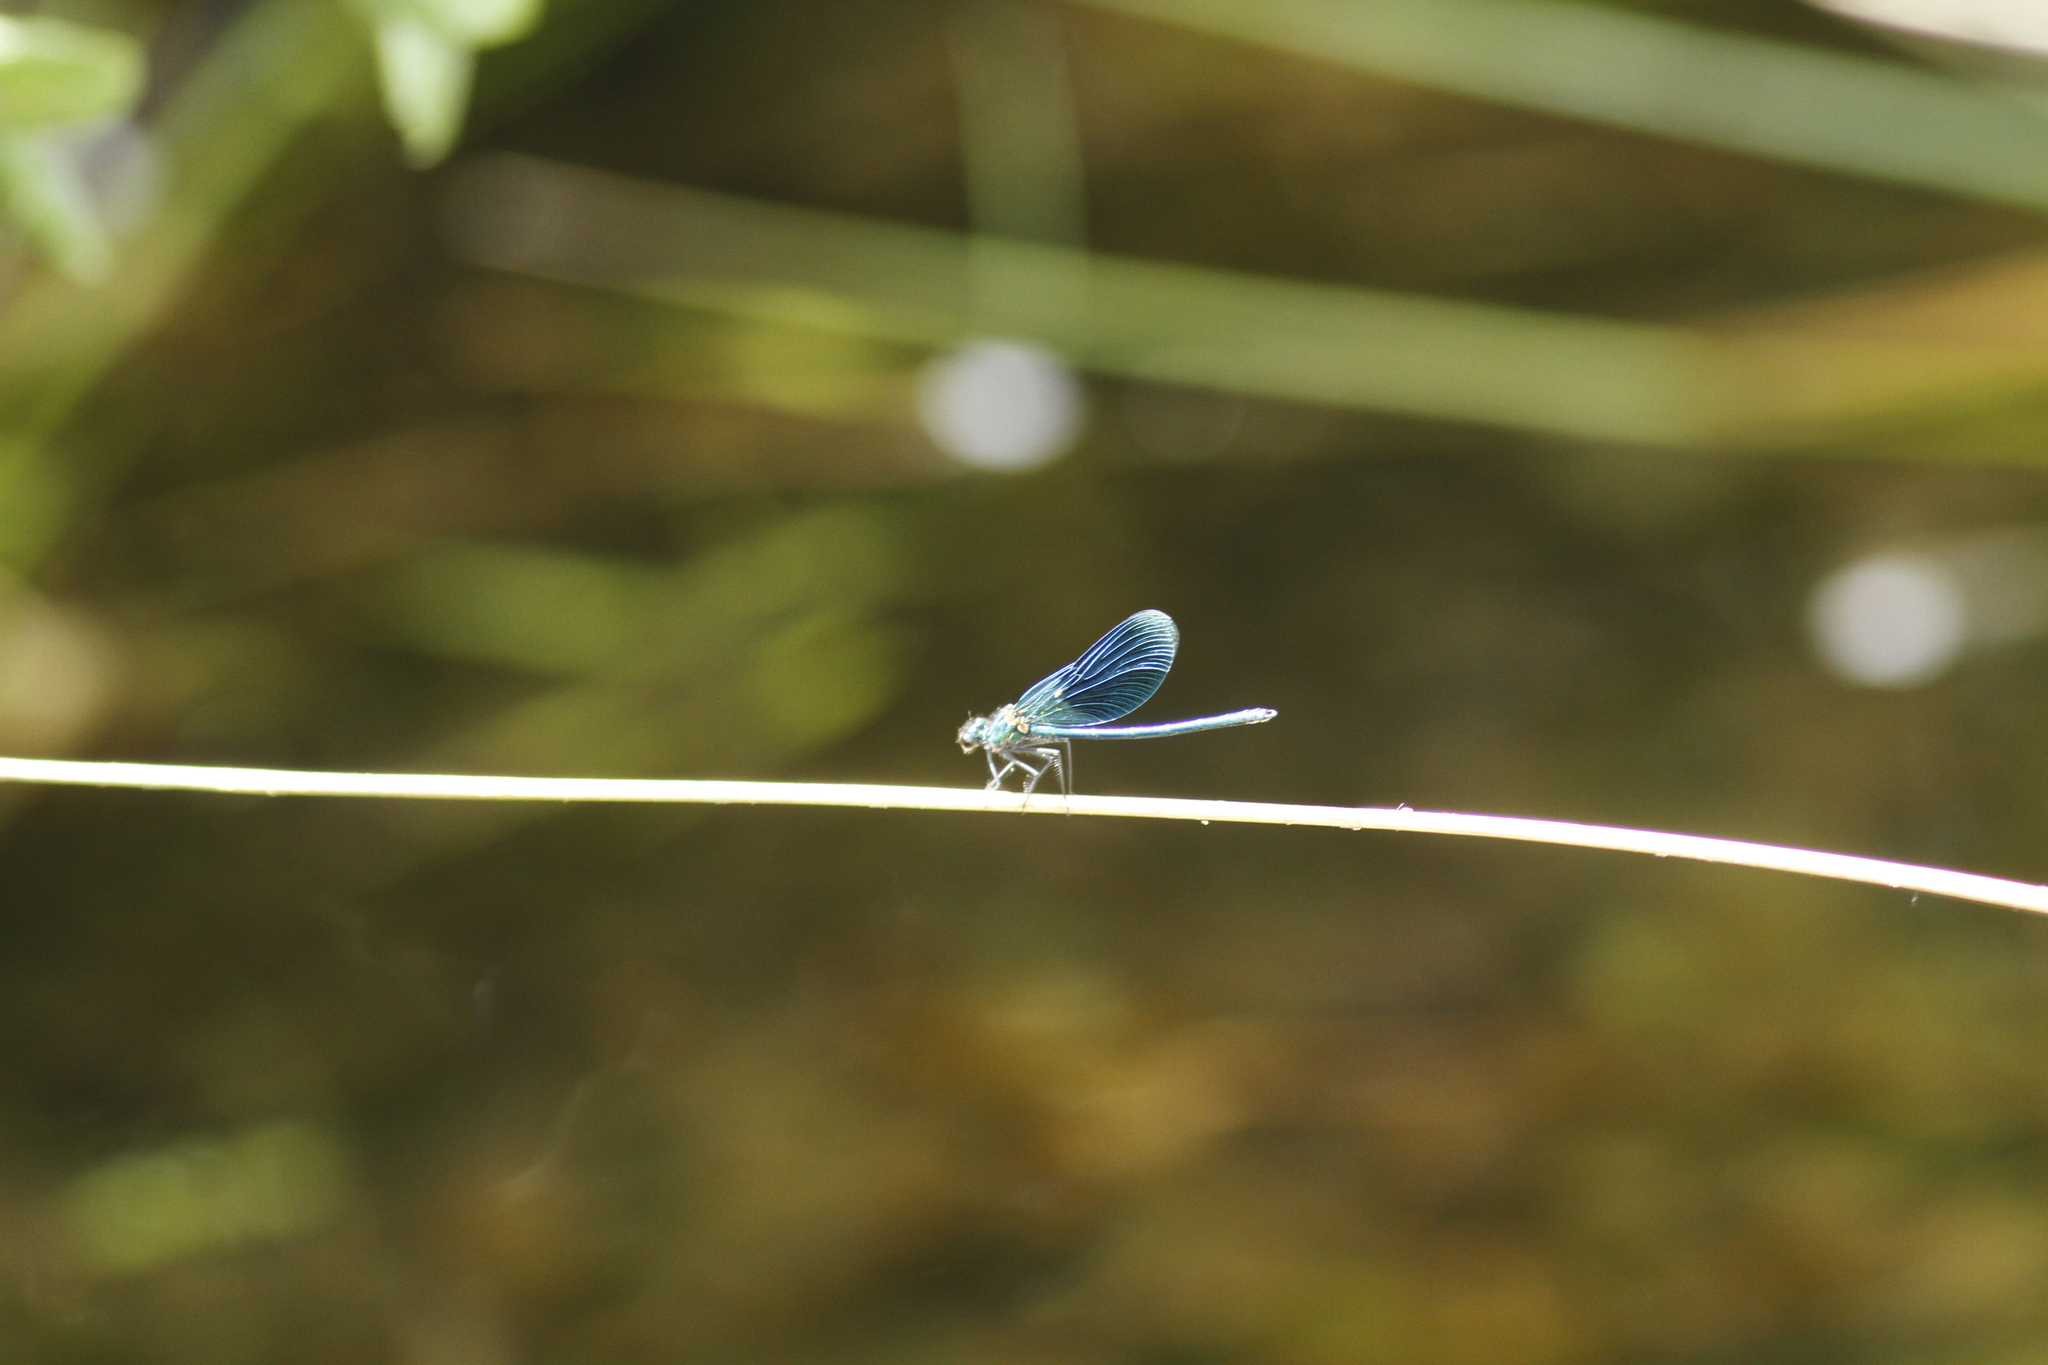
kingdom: Animalia
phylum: Arthropoda
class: Insecta
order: Odonata
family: Calopterygidae
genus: Calopteryx
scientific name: Calopteryx splendens
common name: Banded demoiselle
